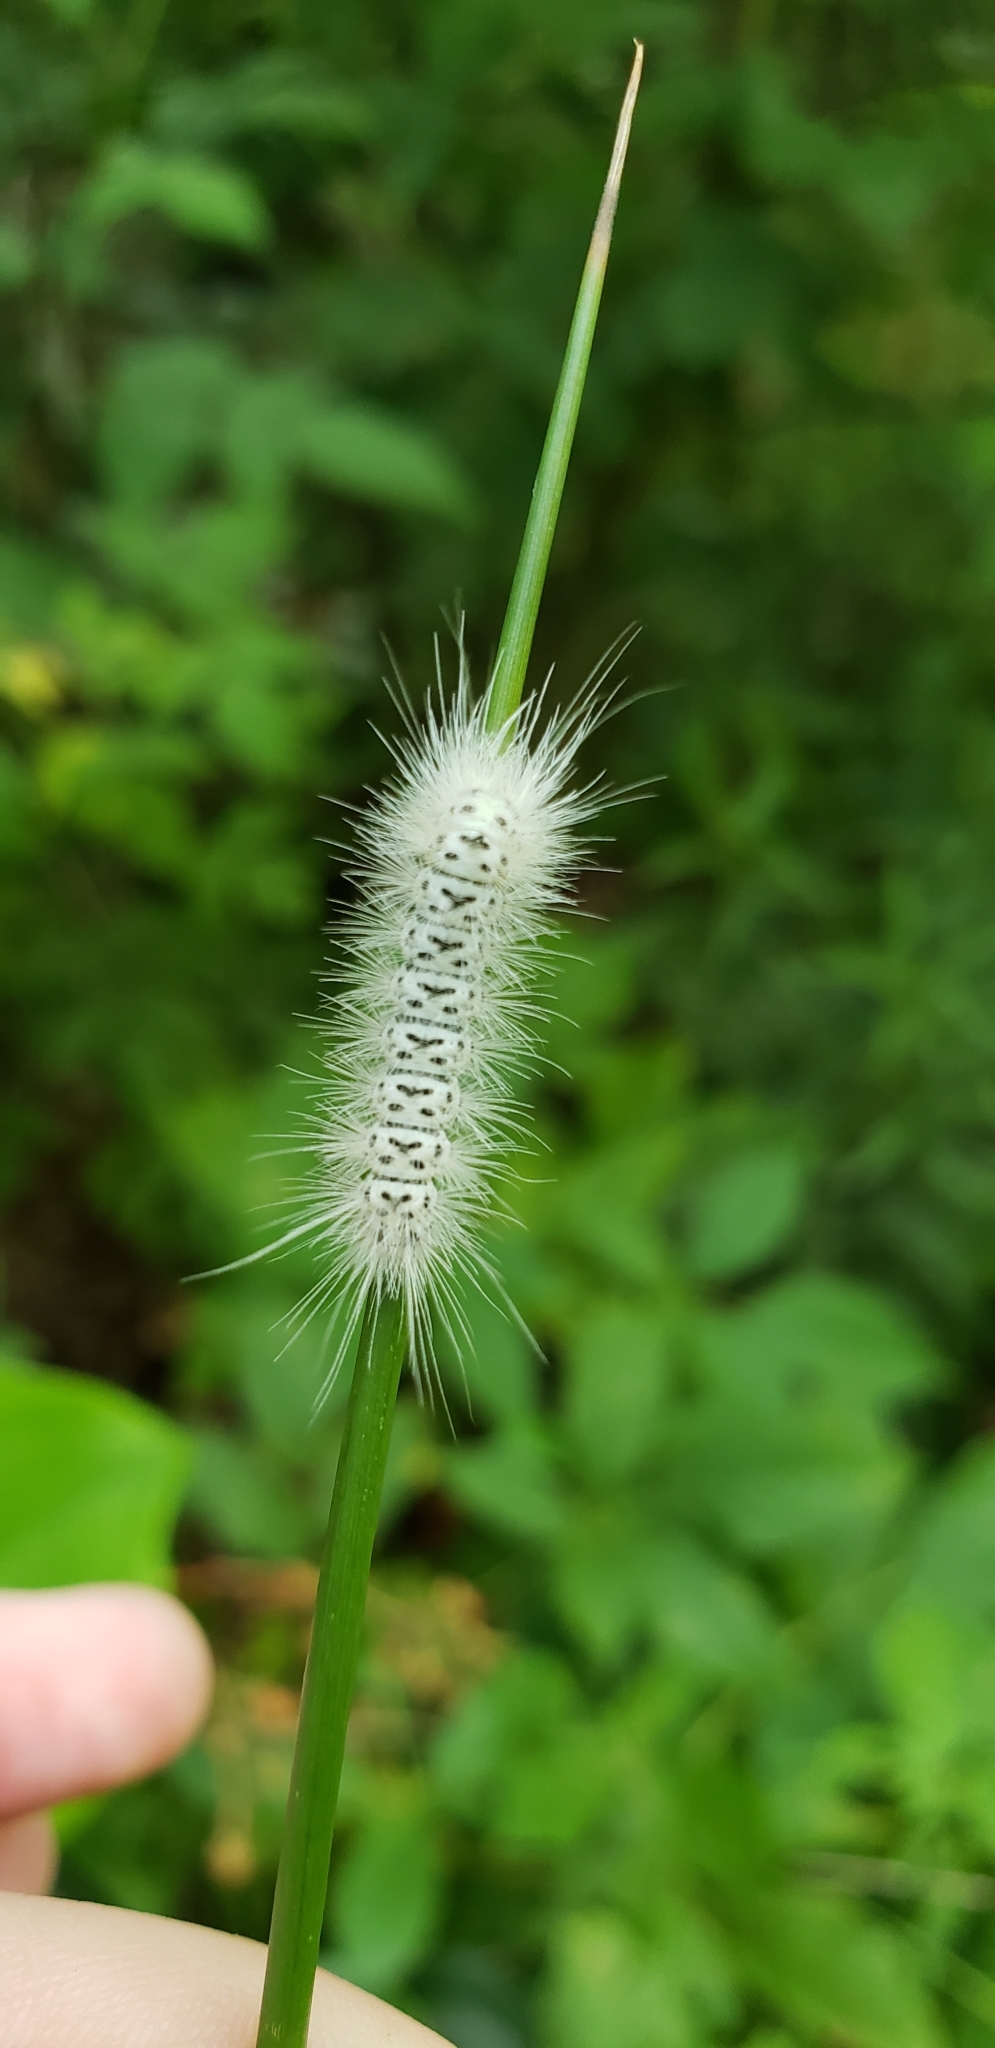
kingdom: Animalia
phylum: Arthropoda
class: Insecta
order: Lepidoptera
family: Erebidae
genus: Lophocampa
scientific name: Lophocampa caryae
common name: Hickory tussock moth
